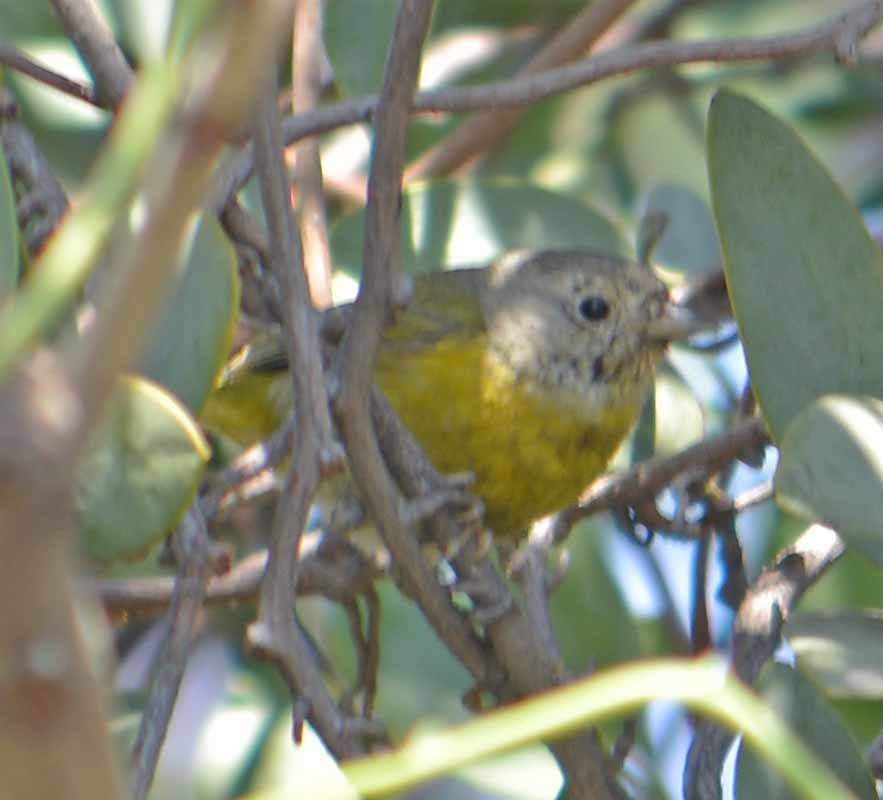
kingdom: Animalia
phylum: Chordata
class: Aves
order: Passeriformes
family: Parulidae
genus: Leiothlypis
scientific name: Leiothlypis ruficapilla
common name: Nashville warbler
